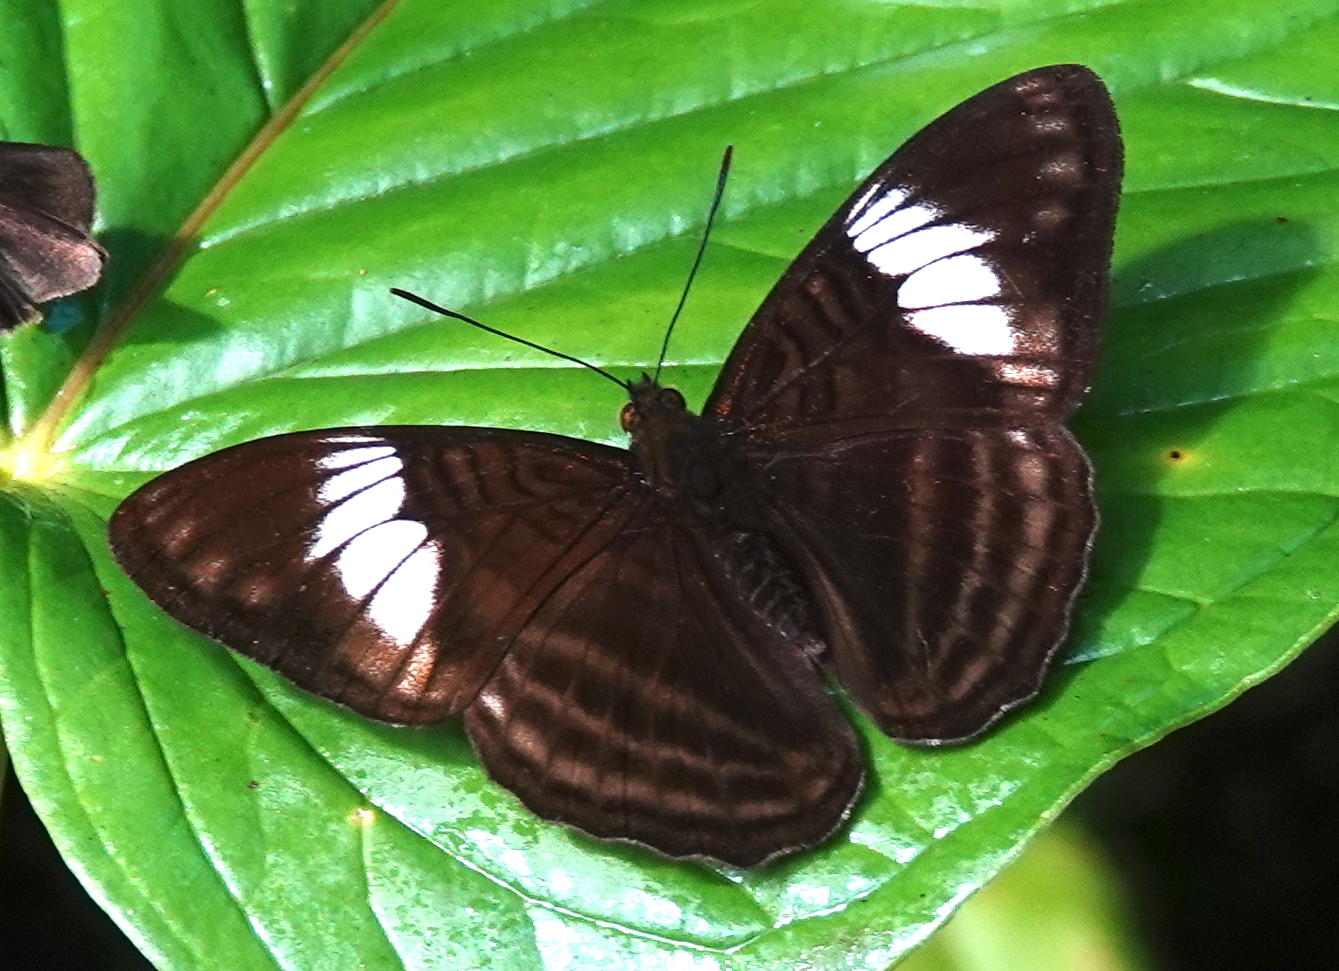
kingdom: Animalia
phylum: Arthropoda
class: Insecta
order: Lepidoptera
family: Nymphalidae
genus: Limenitis
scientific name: Limenitis ethelda
